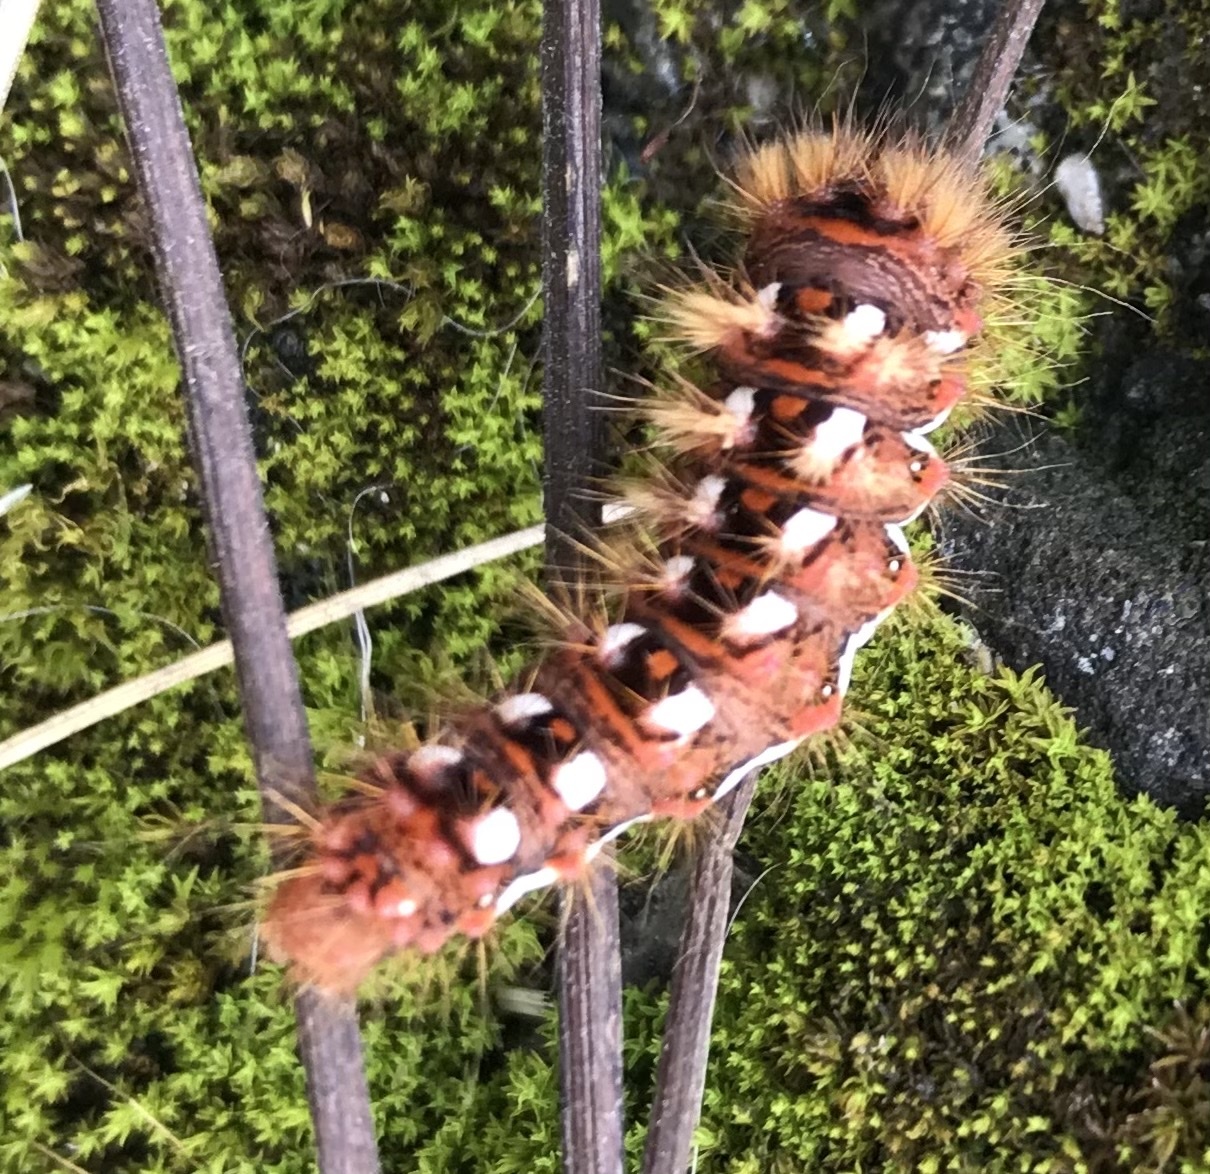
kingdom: Animalia
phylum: Arthropoda
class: Insecta
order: Lepidoptera
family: Noctuidae
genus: Acronicta
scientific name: Acronicta rumicis
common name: Knot grass
